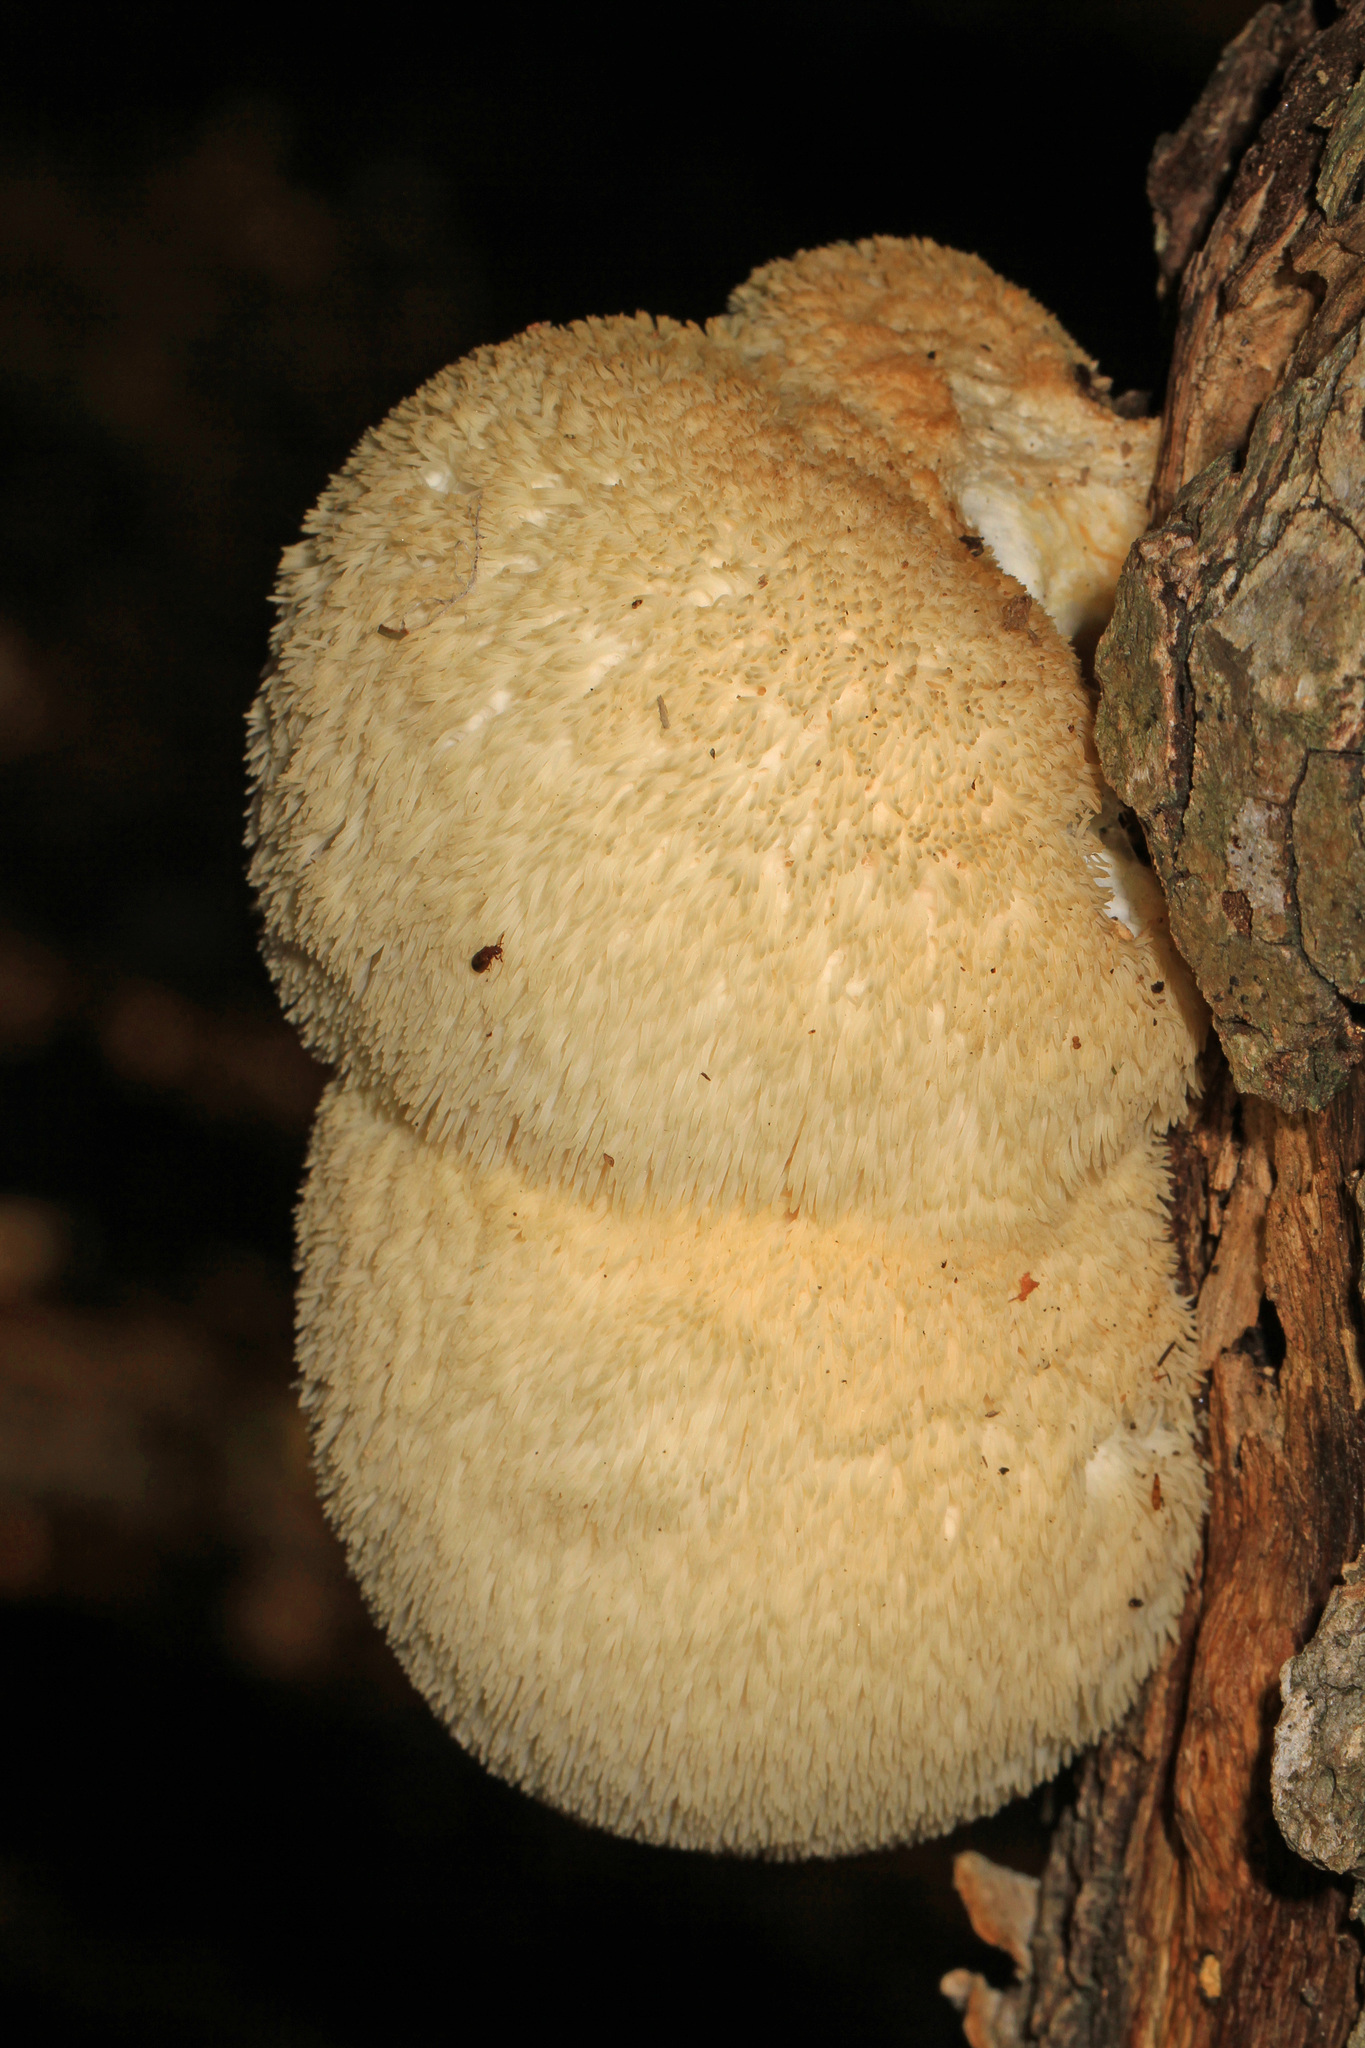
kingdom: Fungi
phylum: Basidiomycota
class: Agaricomycetes
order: Russulales
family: Hericiaceae
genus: Hericium
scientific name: Hericium erinaceus
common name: Bearded tooth
